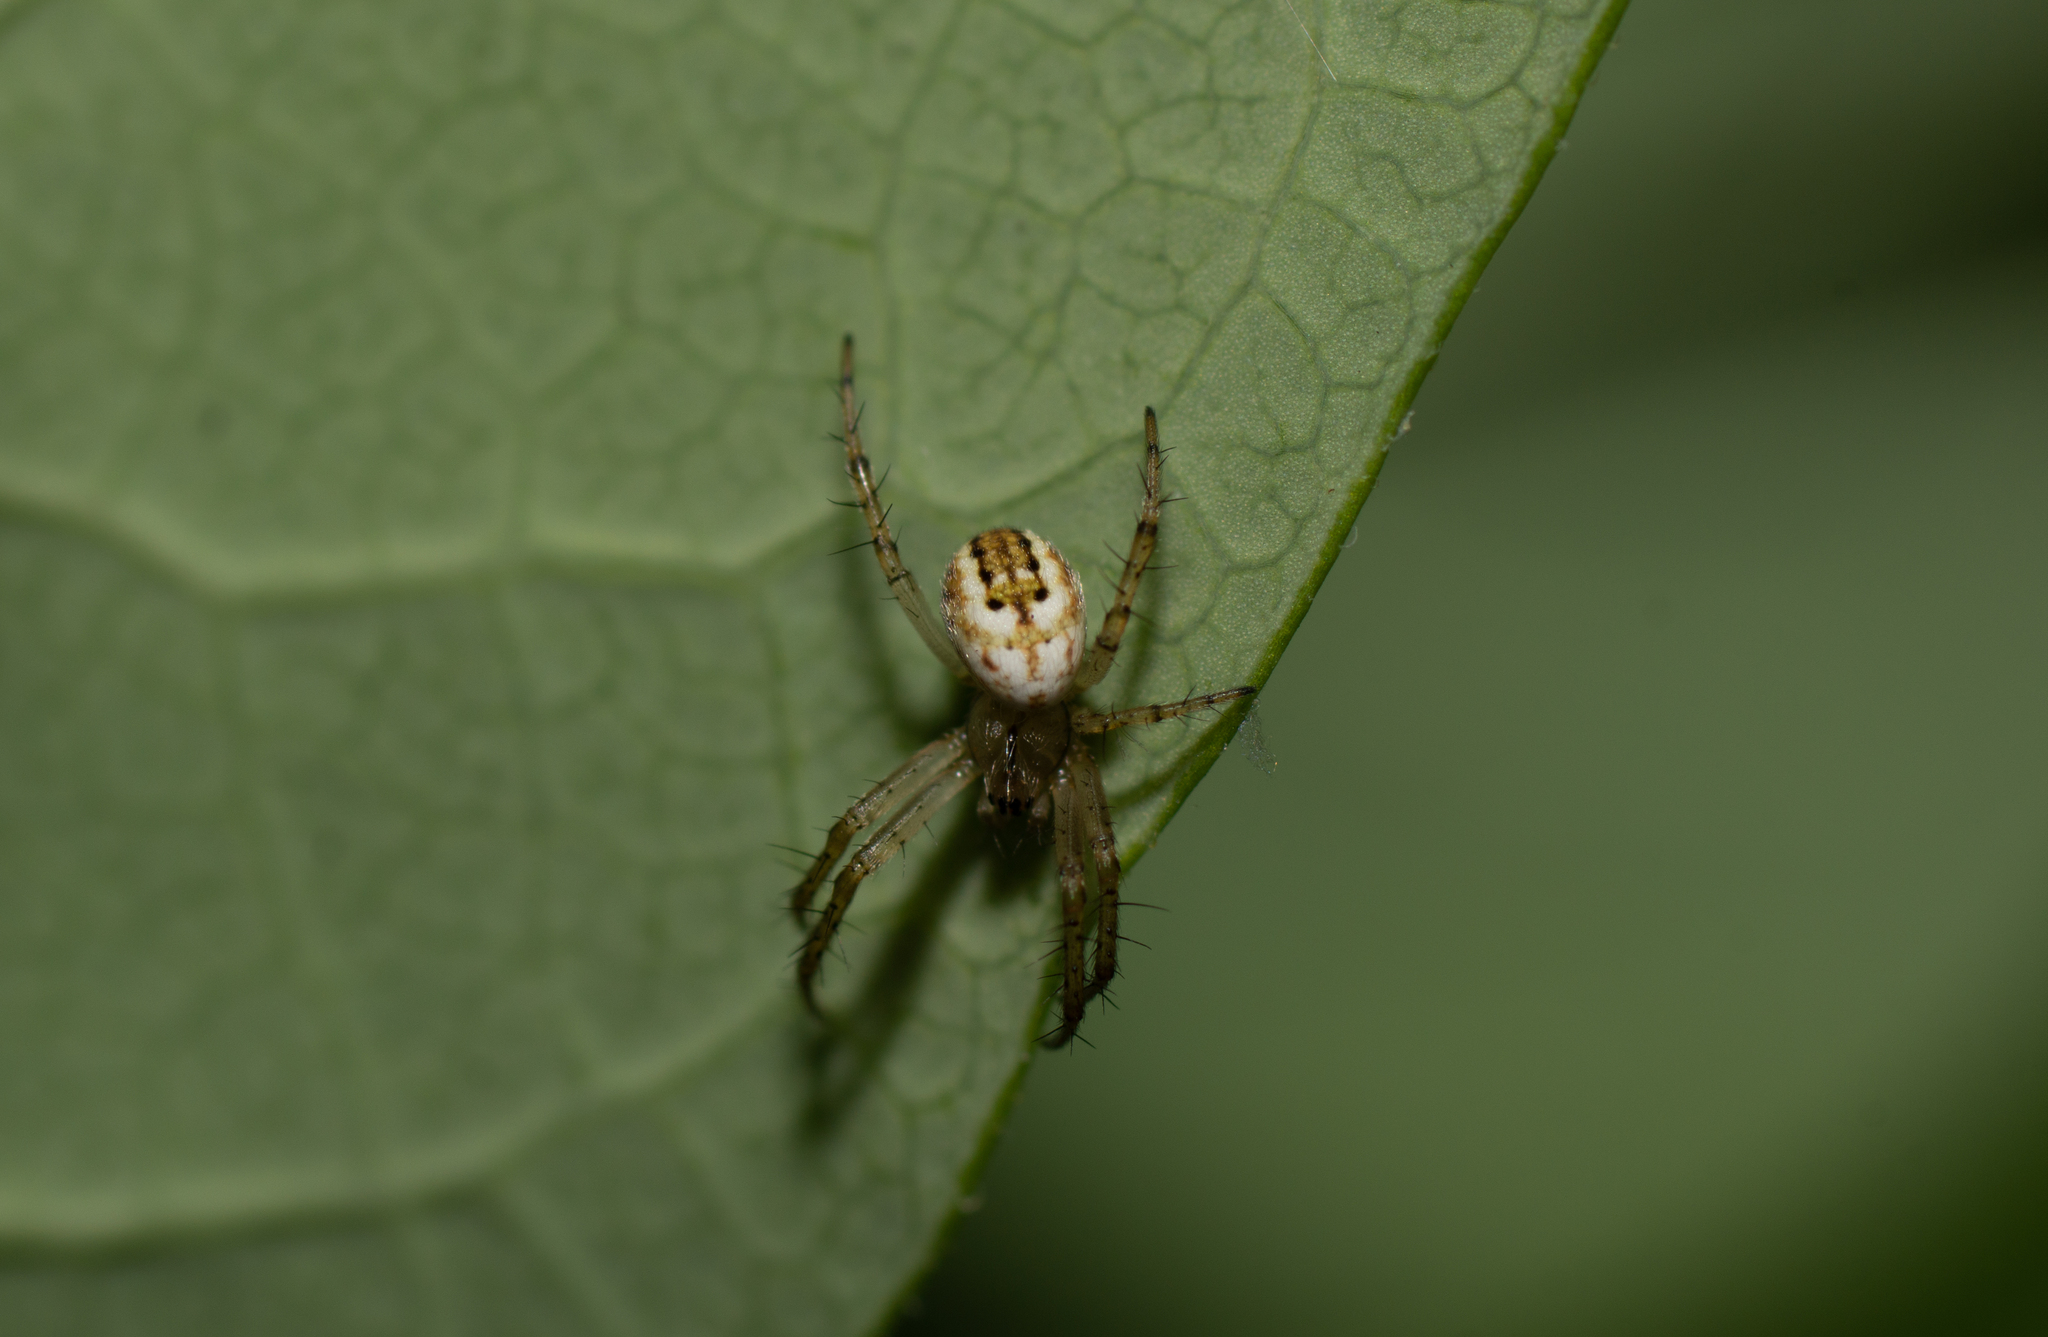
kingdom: Animalia
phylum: Arthropoda
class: Arachnida
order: Araneae
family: Araneidae
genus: Mangora
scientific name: Mangora acalypha
